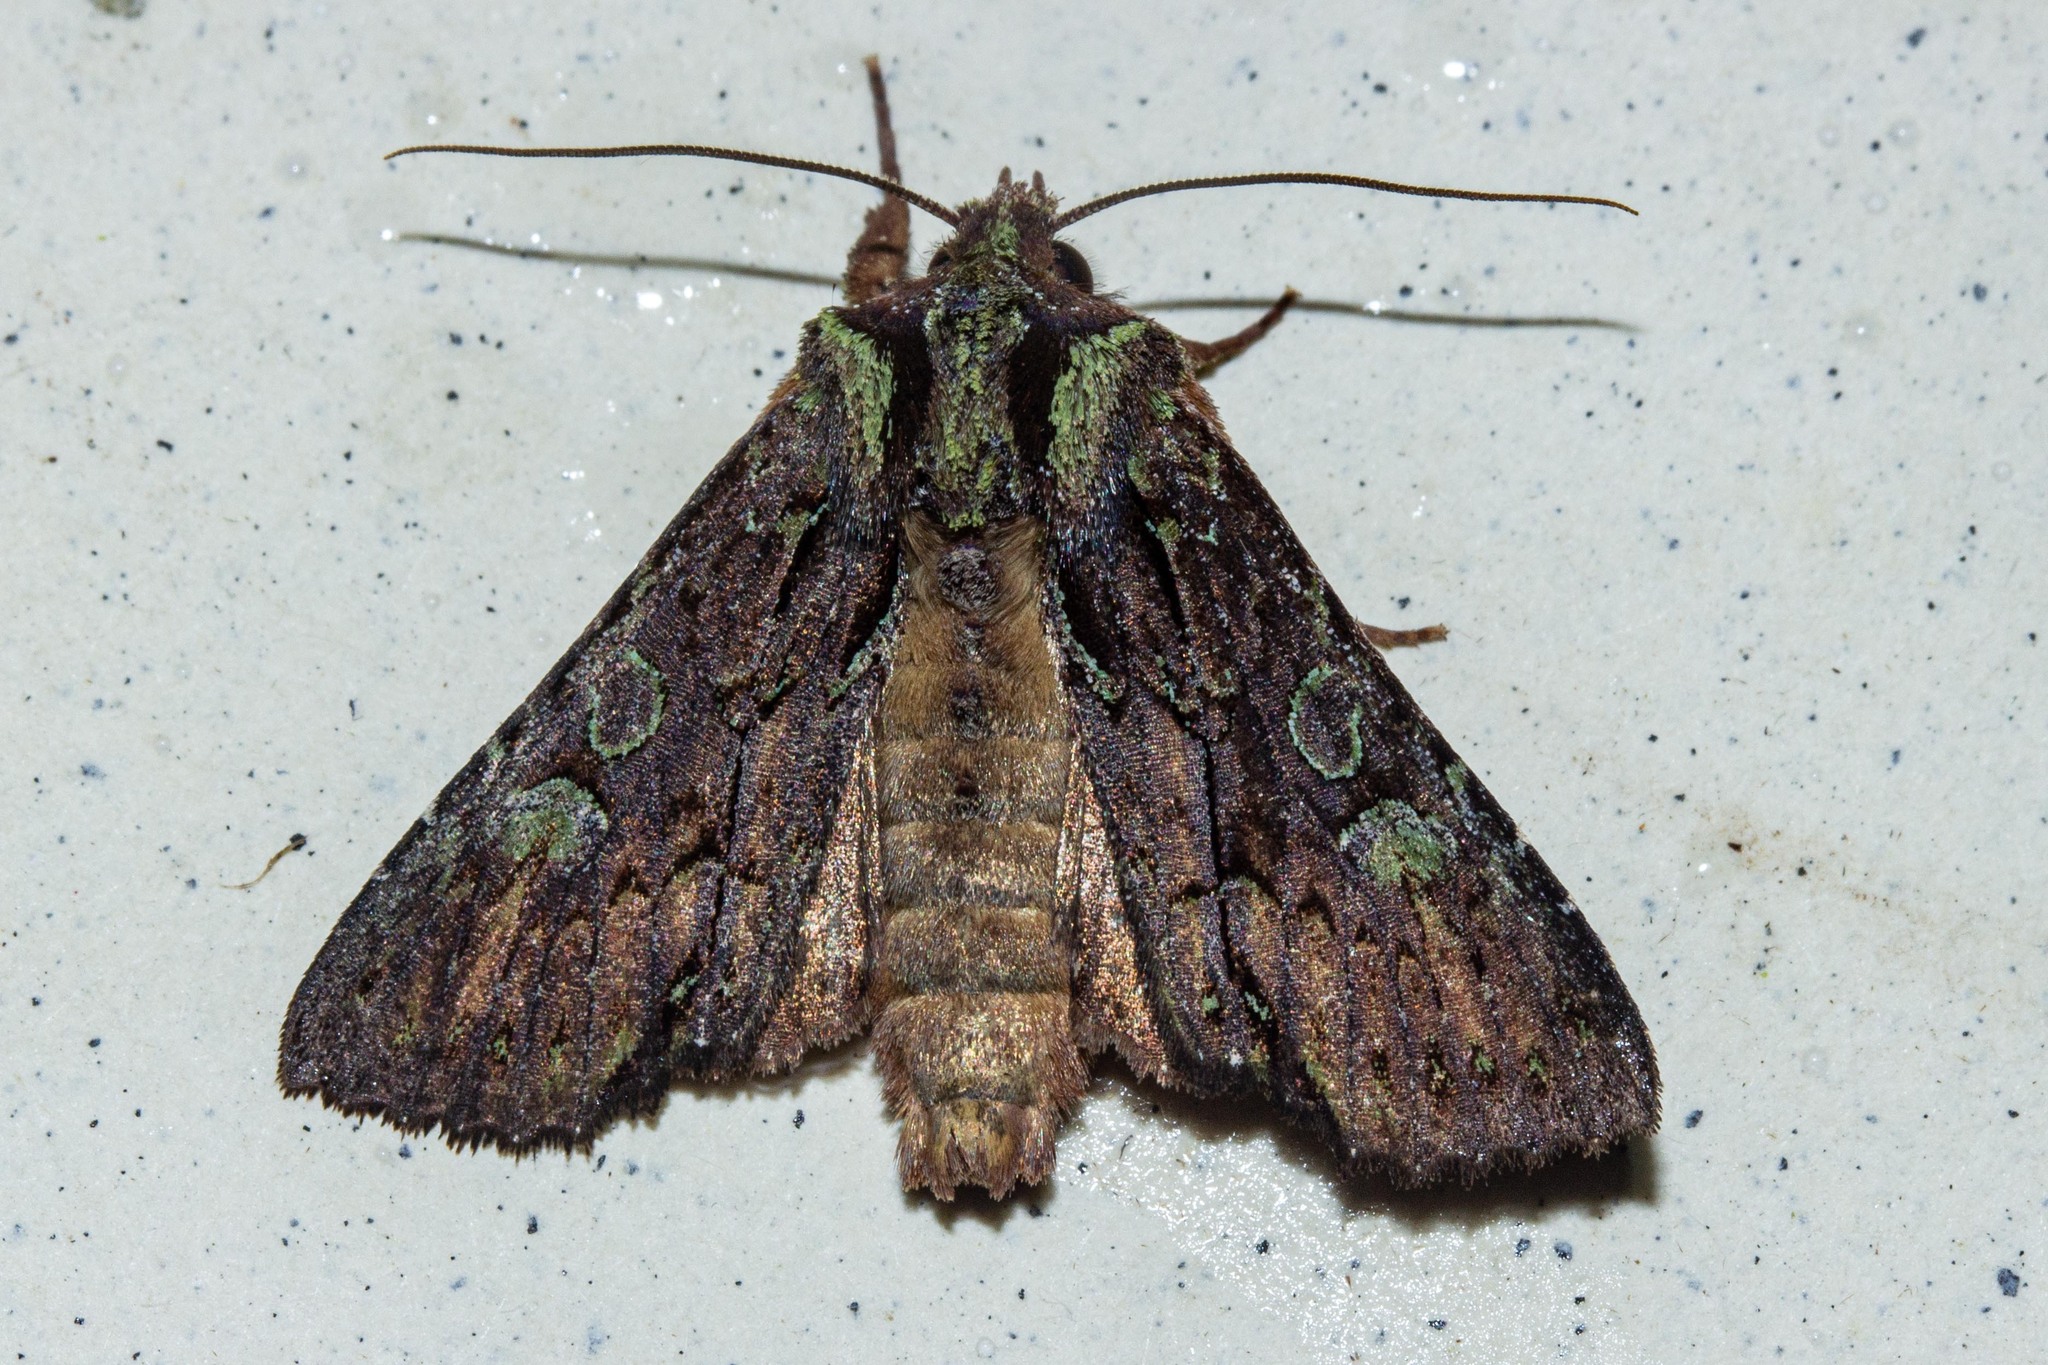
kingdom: Animalia
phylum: Arthropoda
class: Insecta
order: Lepidoptera
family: Noctuidae
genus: Meterana
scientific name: Meterana diatmeta
